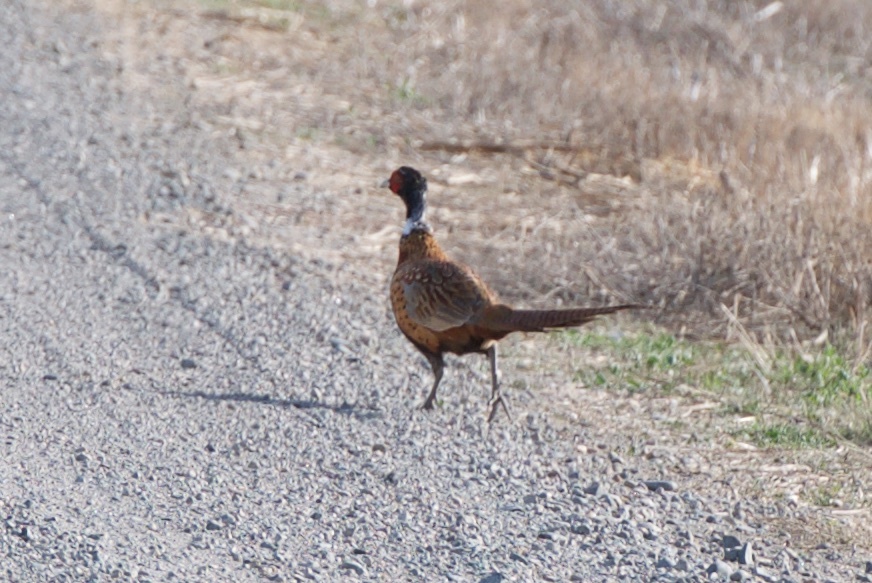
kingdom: Animalia
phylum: Chordata
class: Aves
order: Galliformes
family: Phasianidae
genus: Phasianus
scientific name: Phasianus colchicus
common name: Common pheasant
